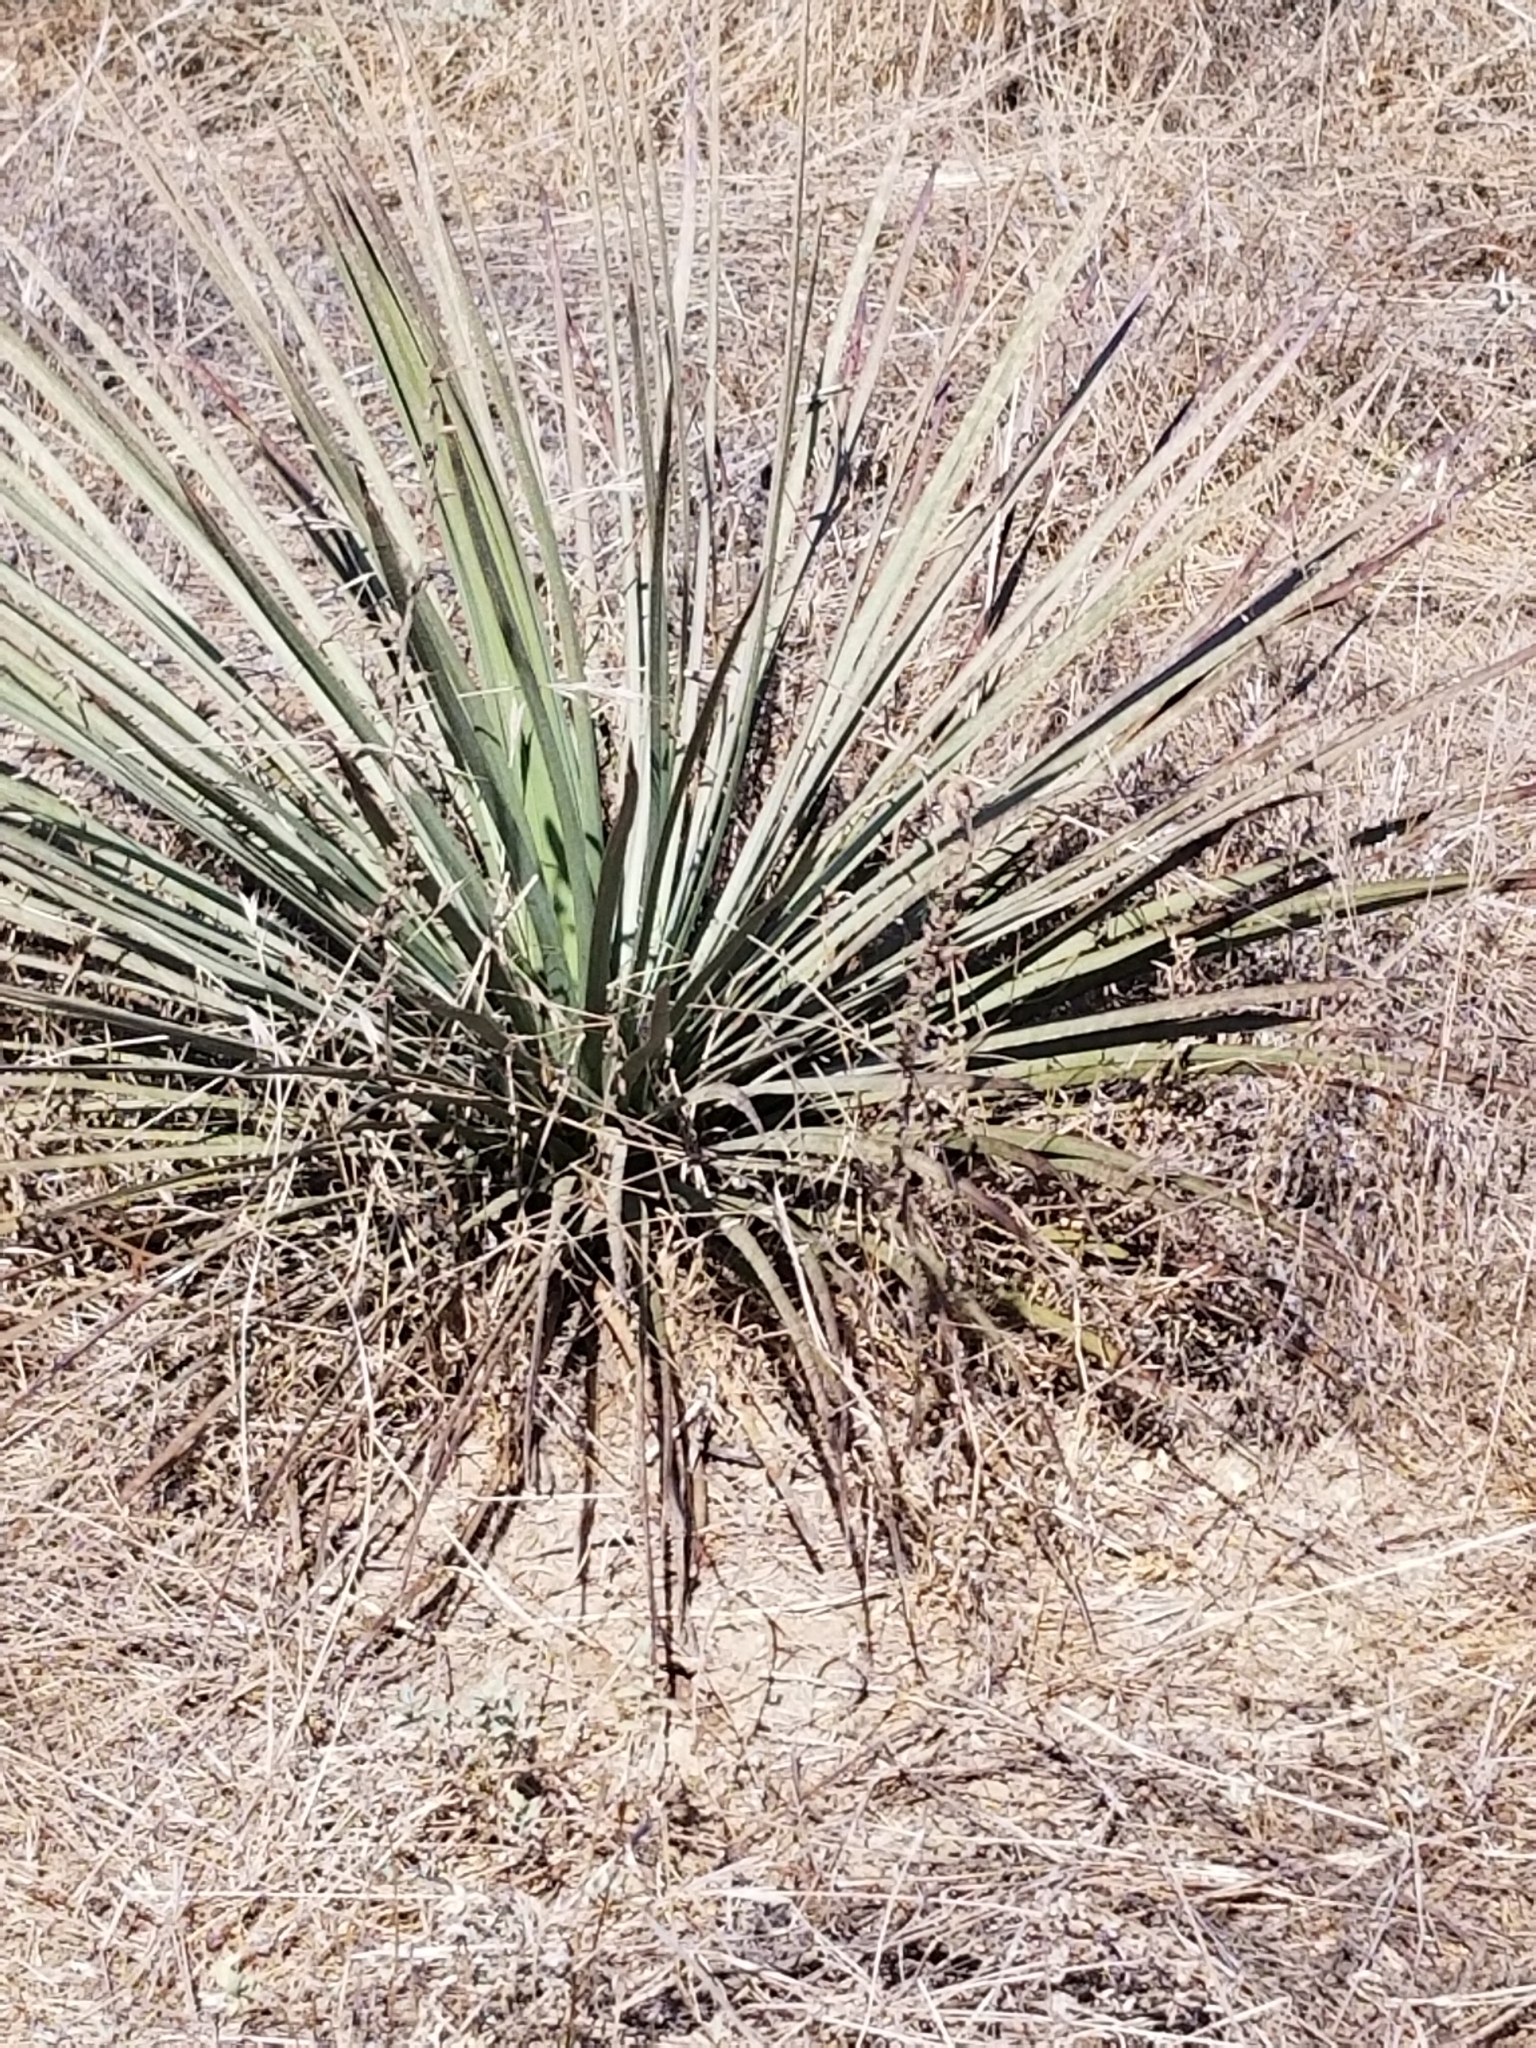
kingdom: Plantae
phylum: Tracheophyta
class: Liliopsida
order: Asparagales
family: Asparagaceae
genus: Hesperoyucca
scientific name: Hesperoyucca whipplei
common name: Our lord's-candle
